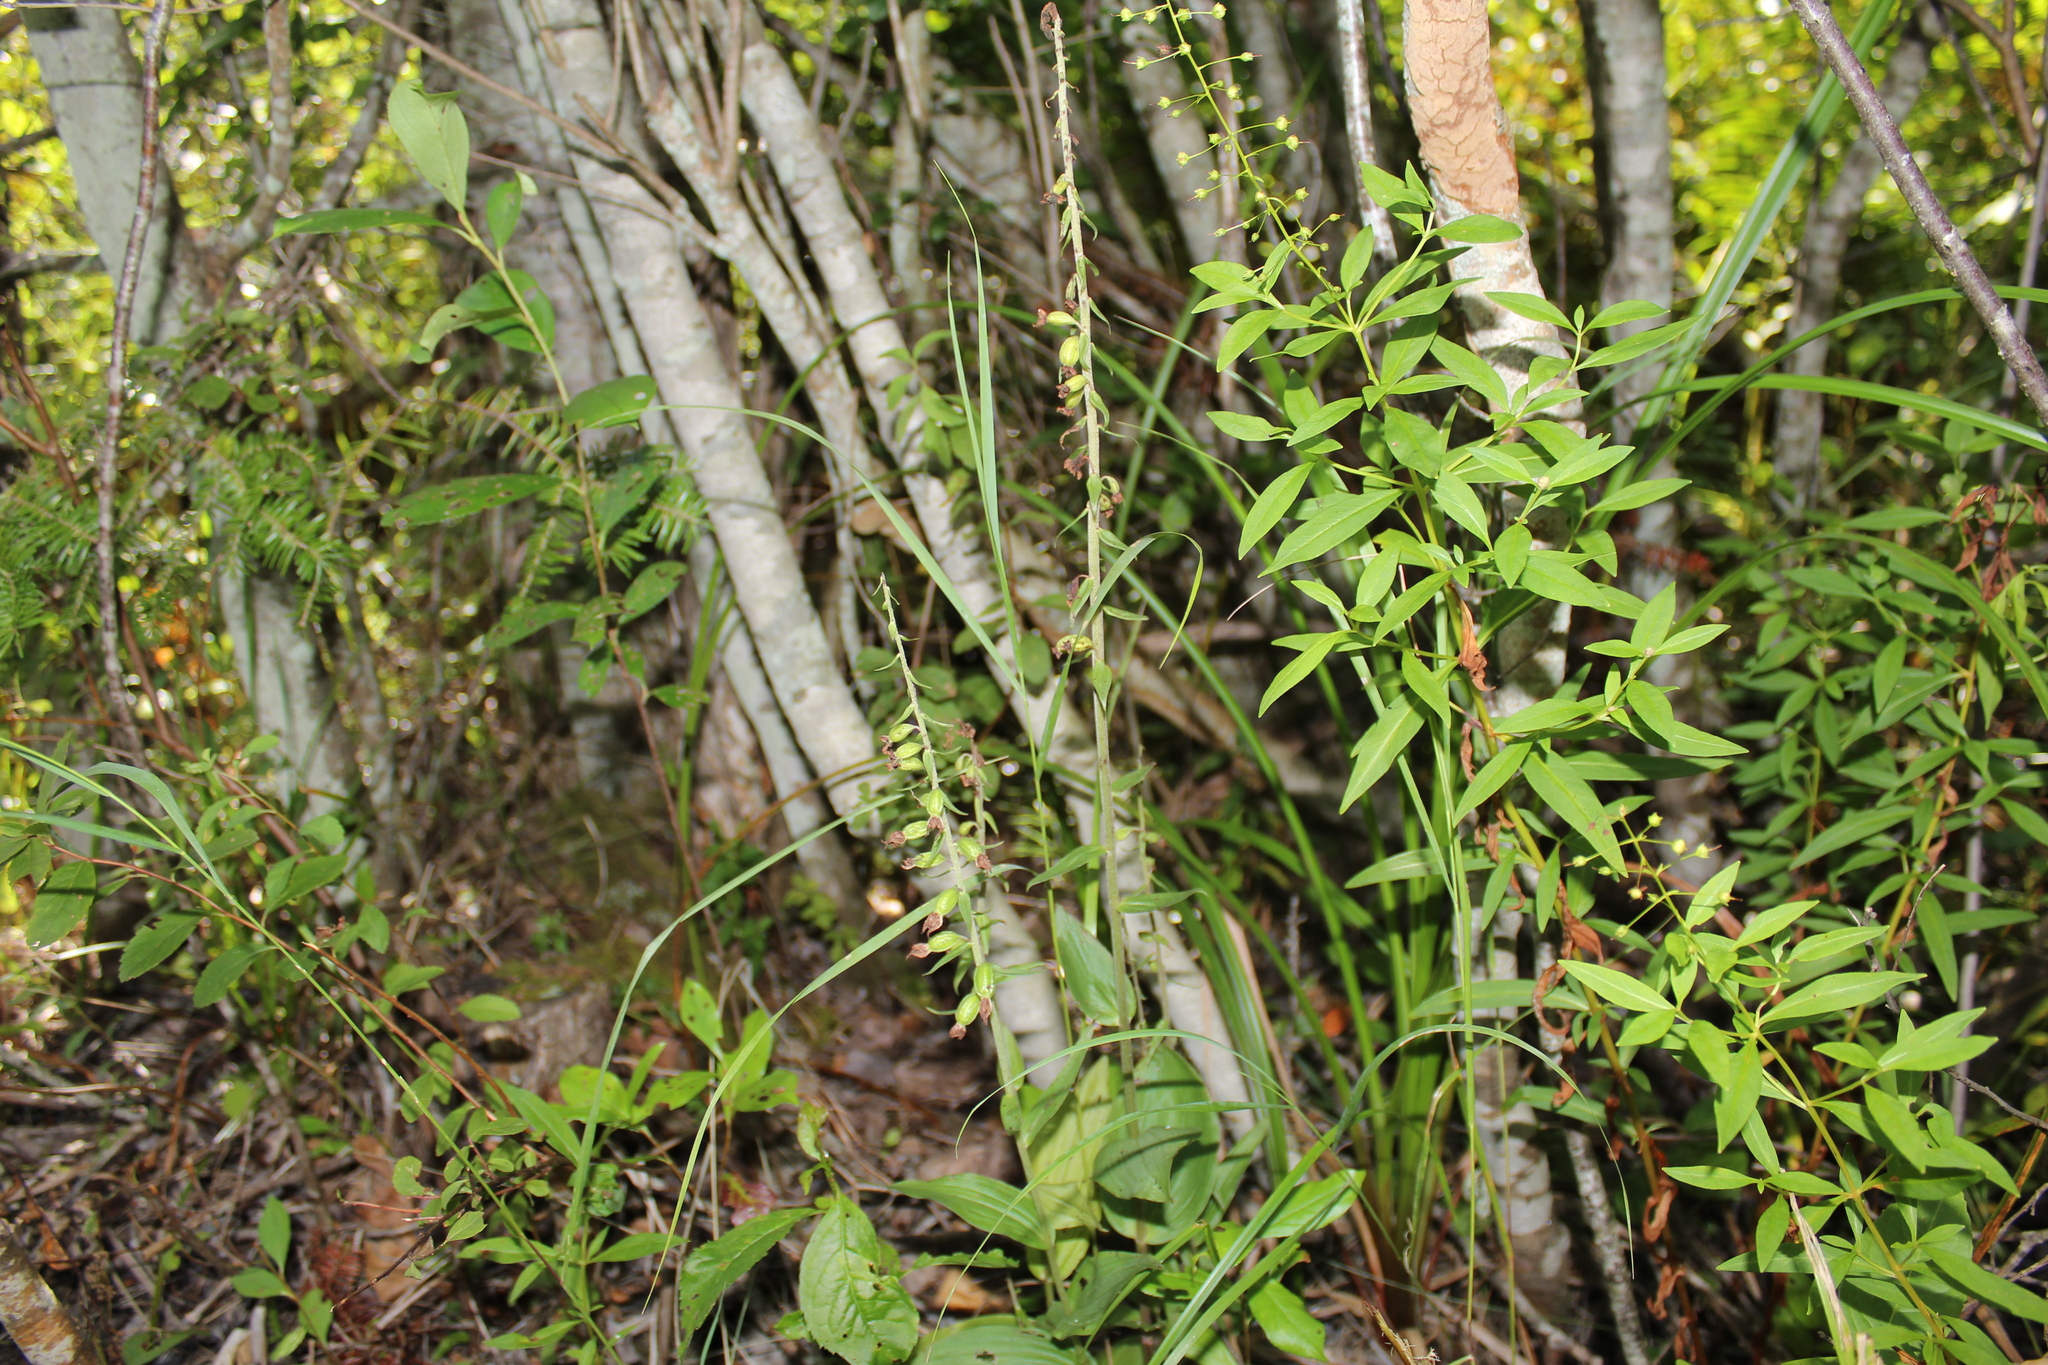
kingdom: Plantae
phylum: Tracheophyta
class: Liliopsida
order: Asparagales
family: Orchidaceae
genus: Epipactis
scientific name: Epipactis helleborine
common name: Broad-leaved helleborine
